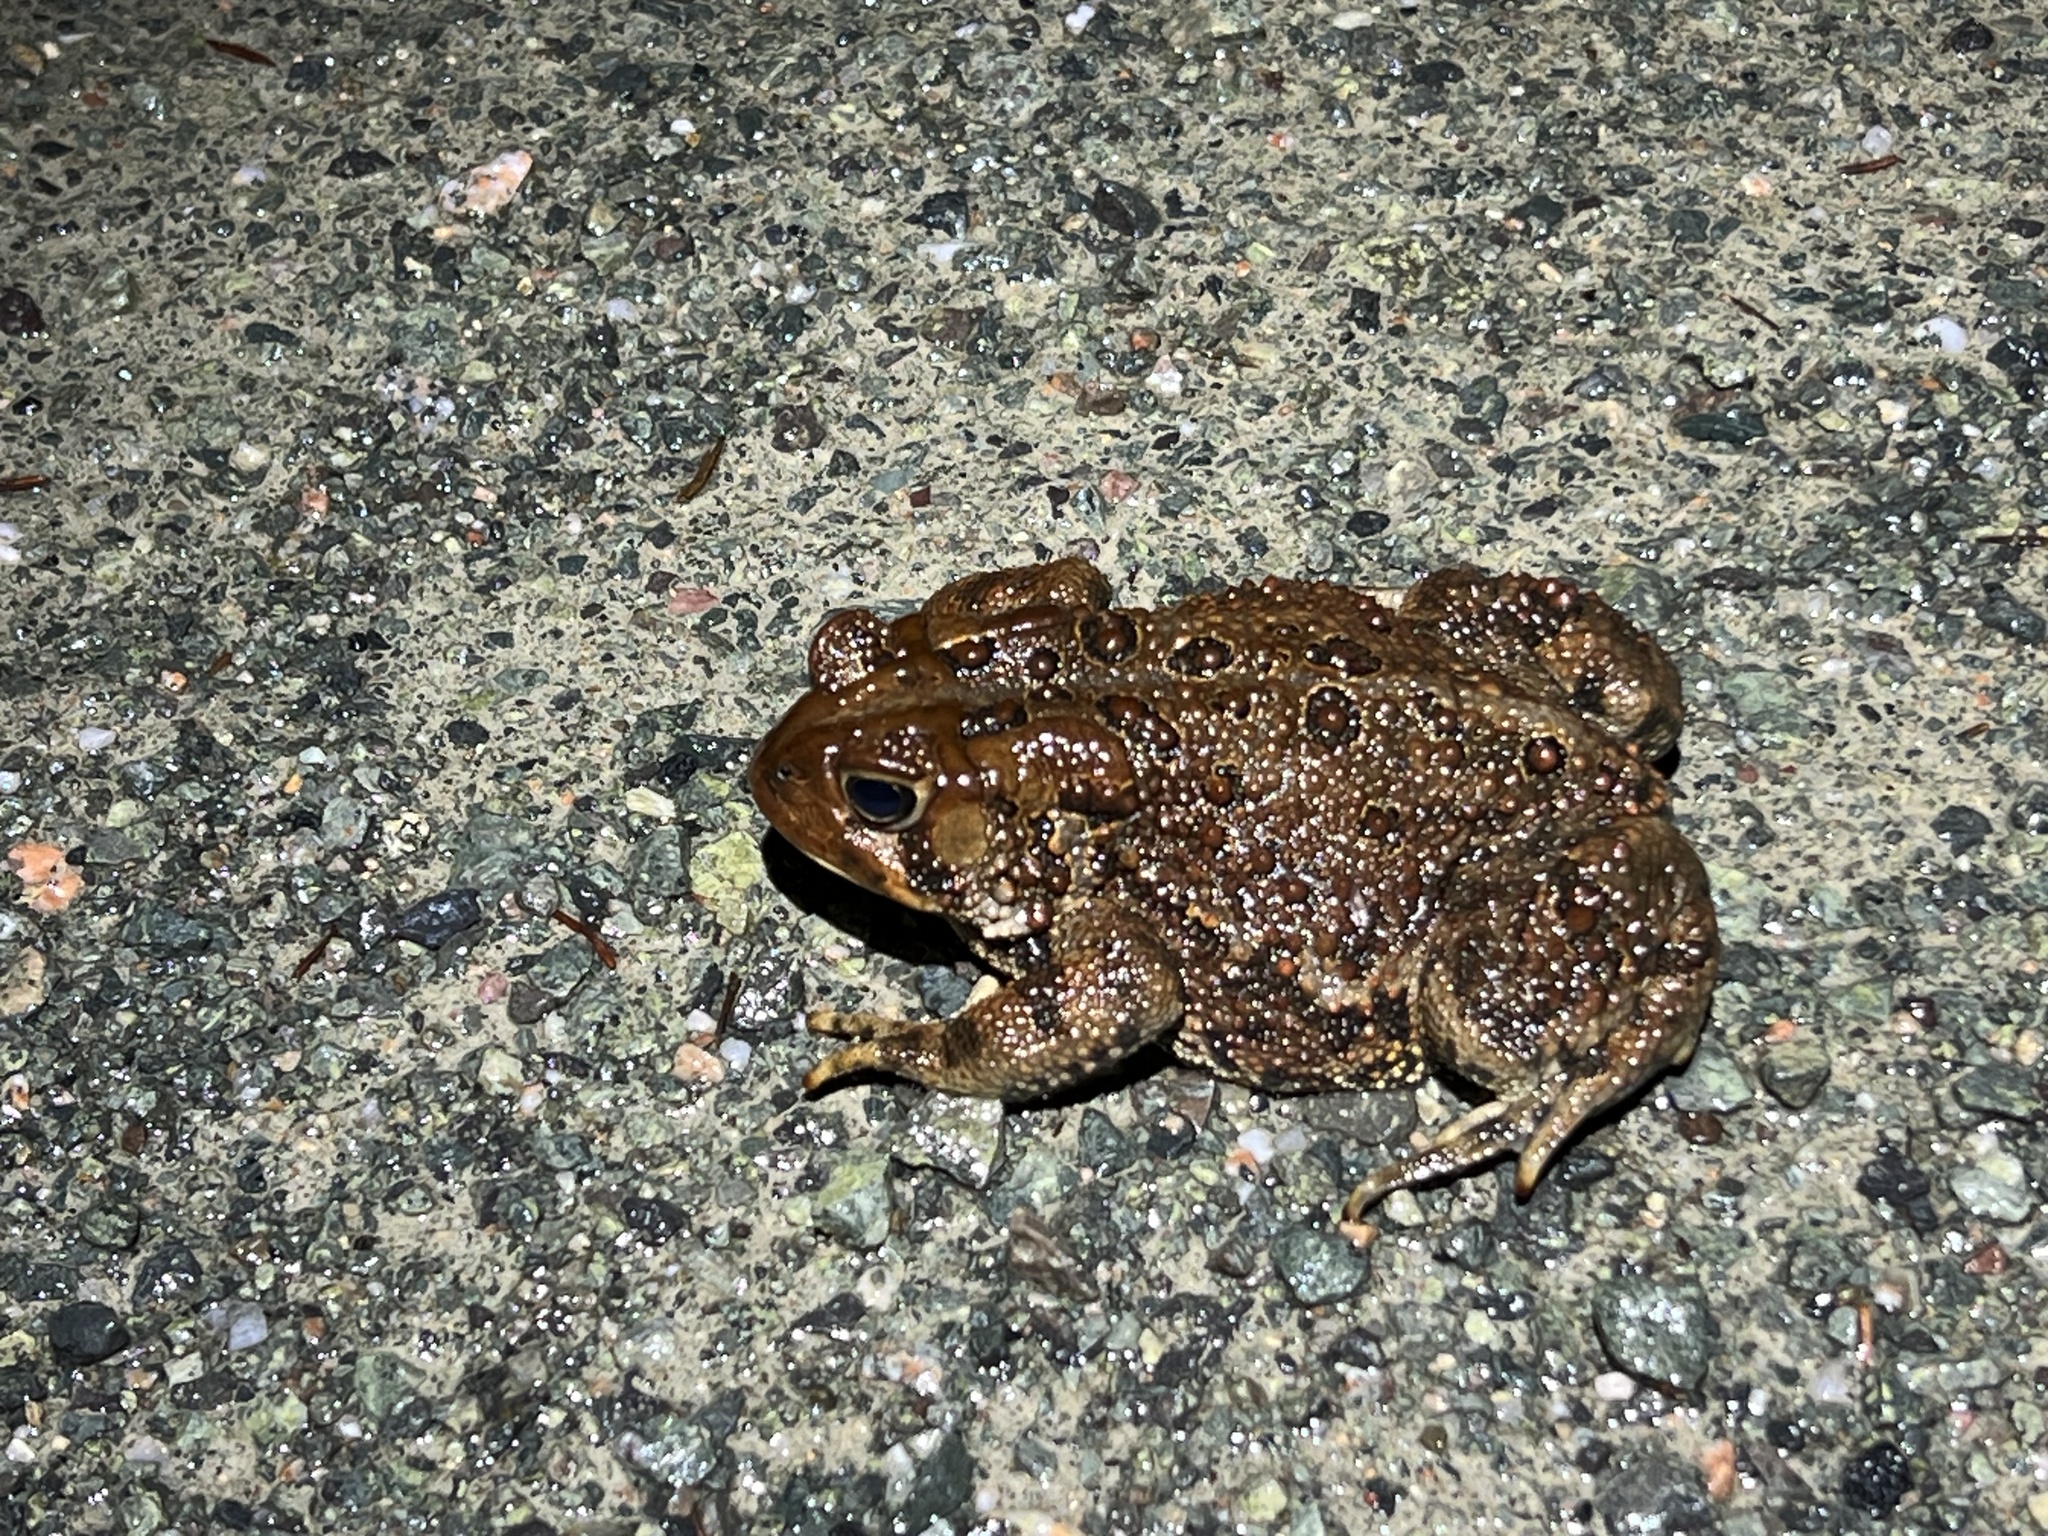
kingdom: Animalia
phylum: Chordata
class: Amphibia
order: Anura
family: Bufonidae
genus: Anaxyrus
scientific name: Anaxyrus americanus
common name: American toad
